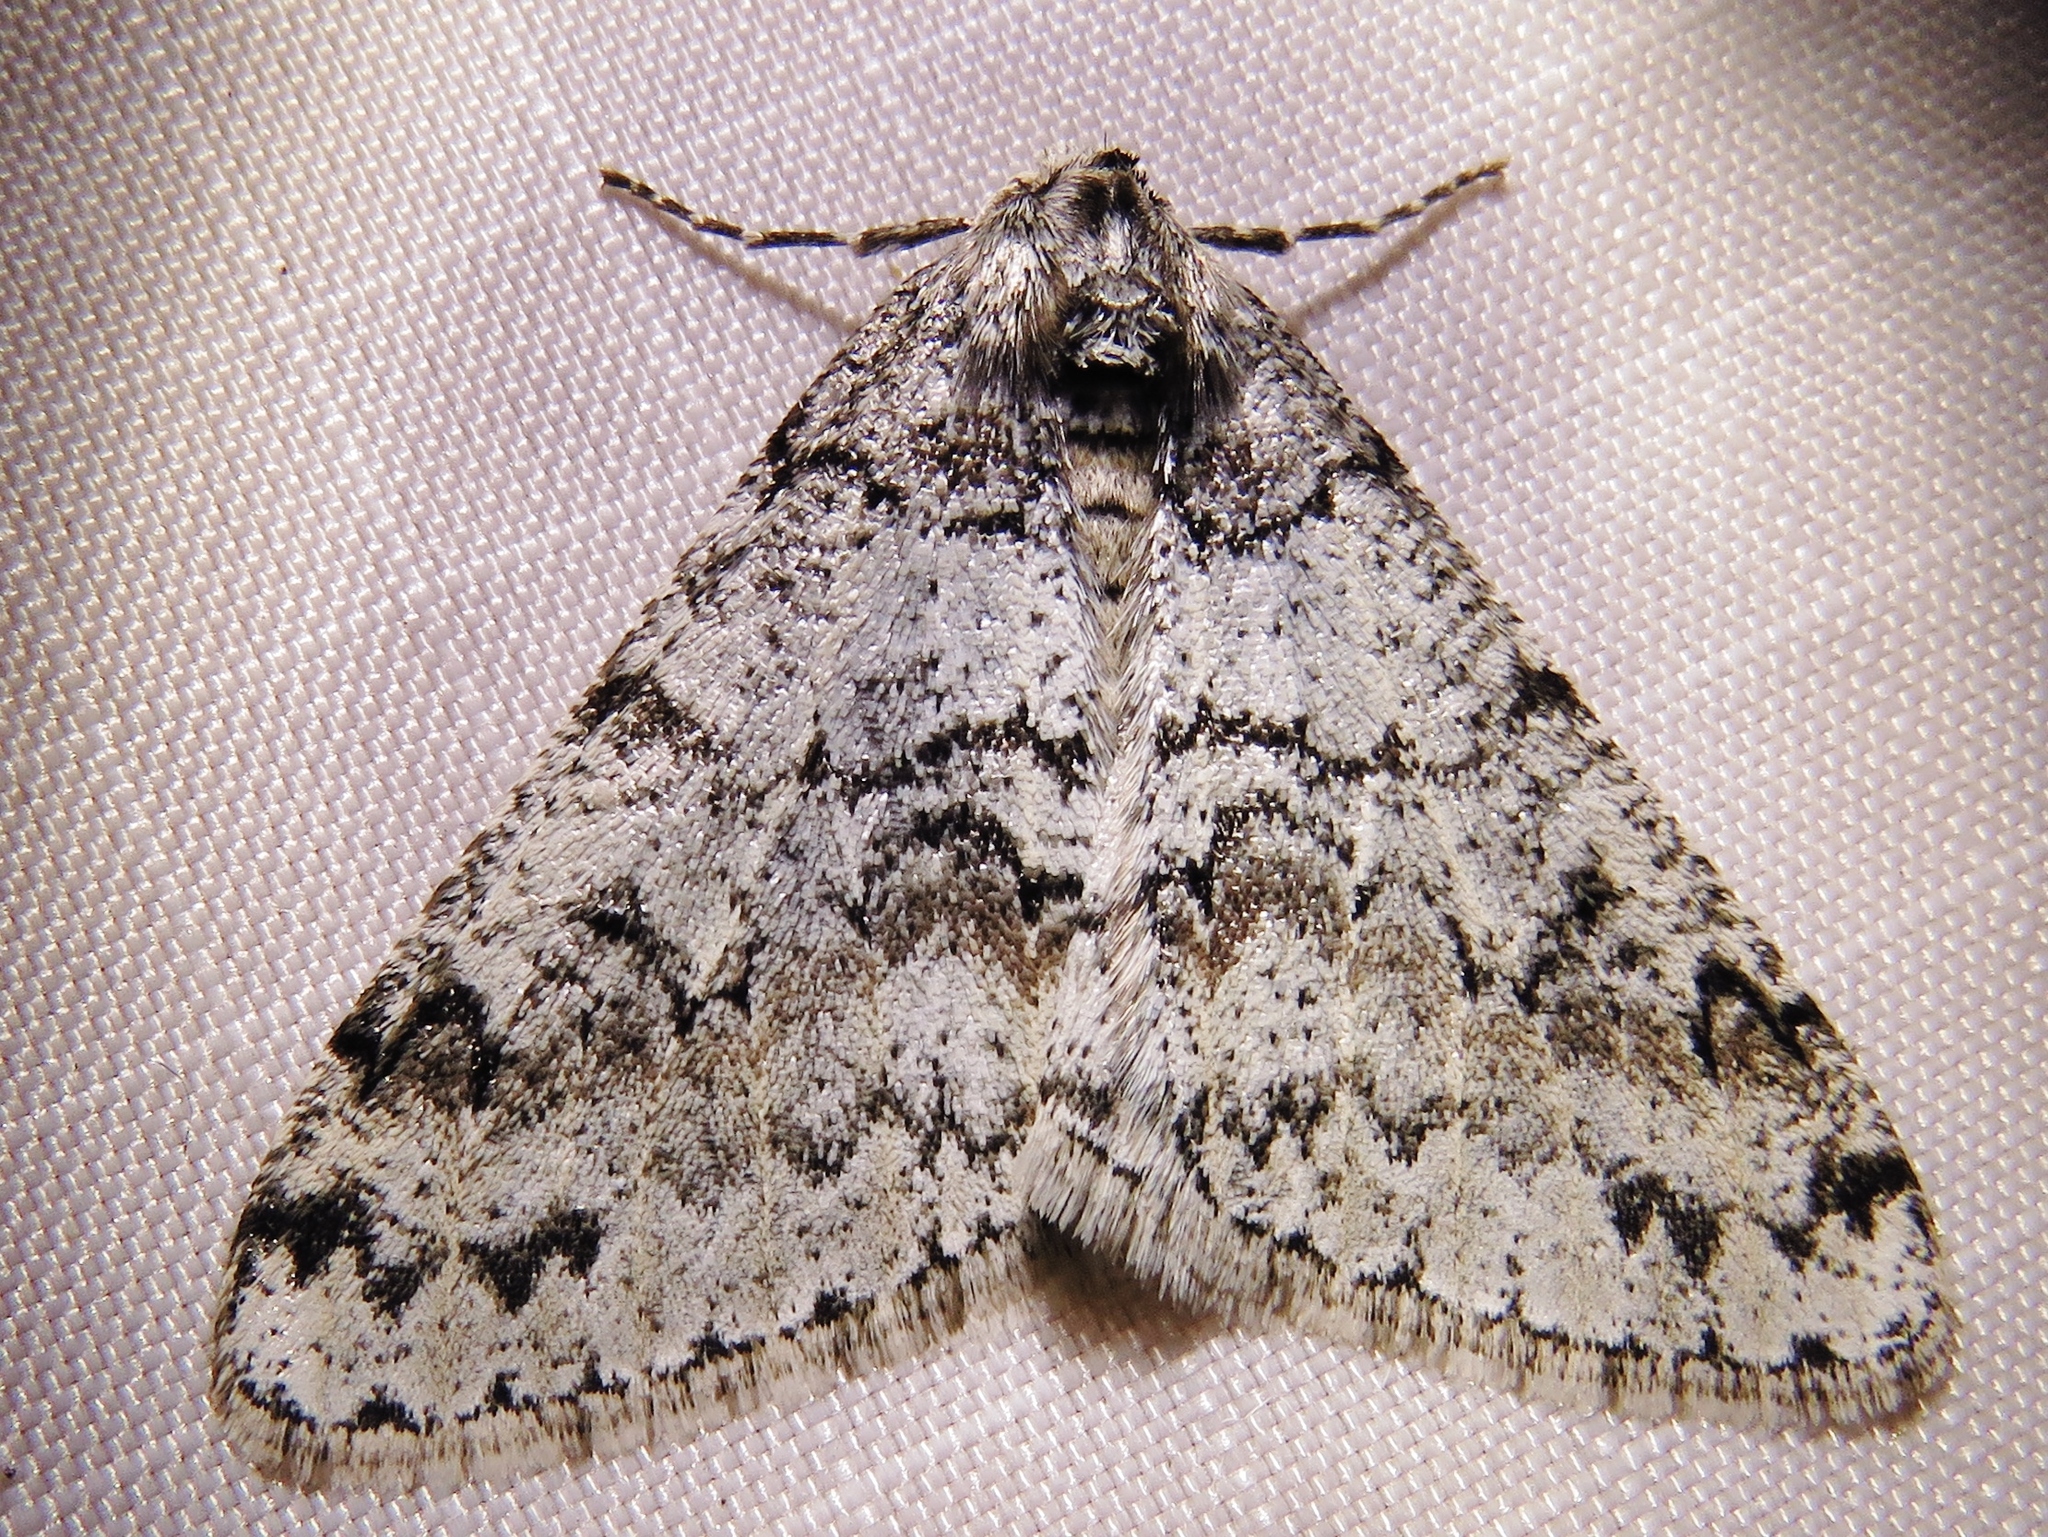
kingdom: Animalia
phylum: Arthropoda
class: Insecta
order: Lepidoptera
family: Geometridae
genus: Phigalia
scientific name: Phigalia denticulata
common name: Toothed phigalia
